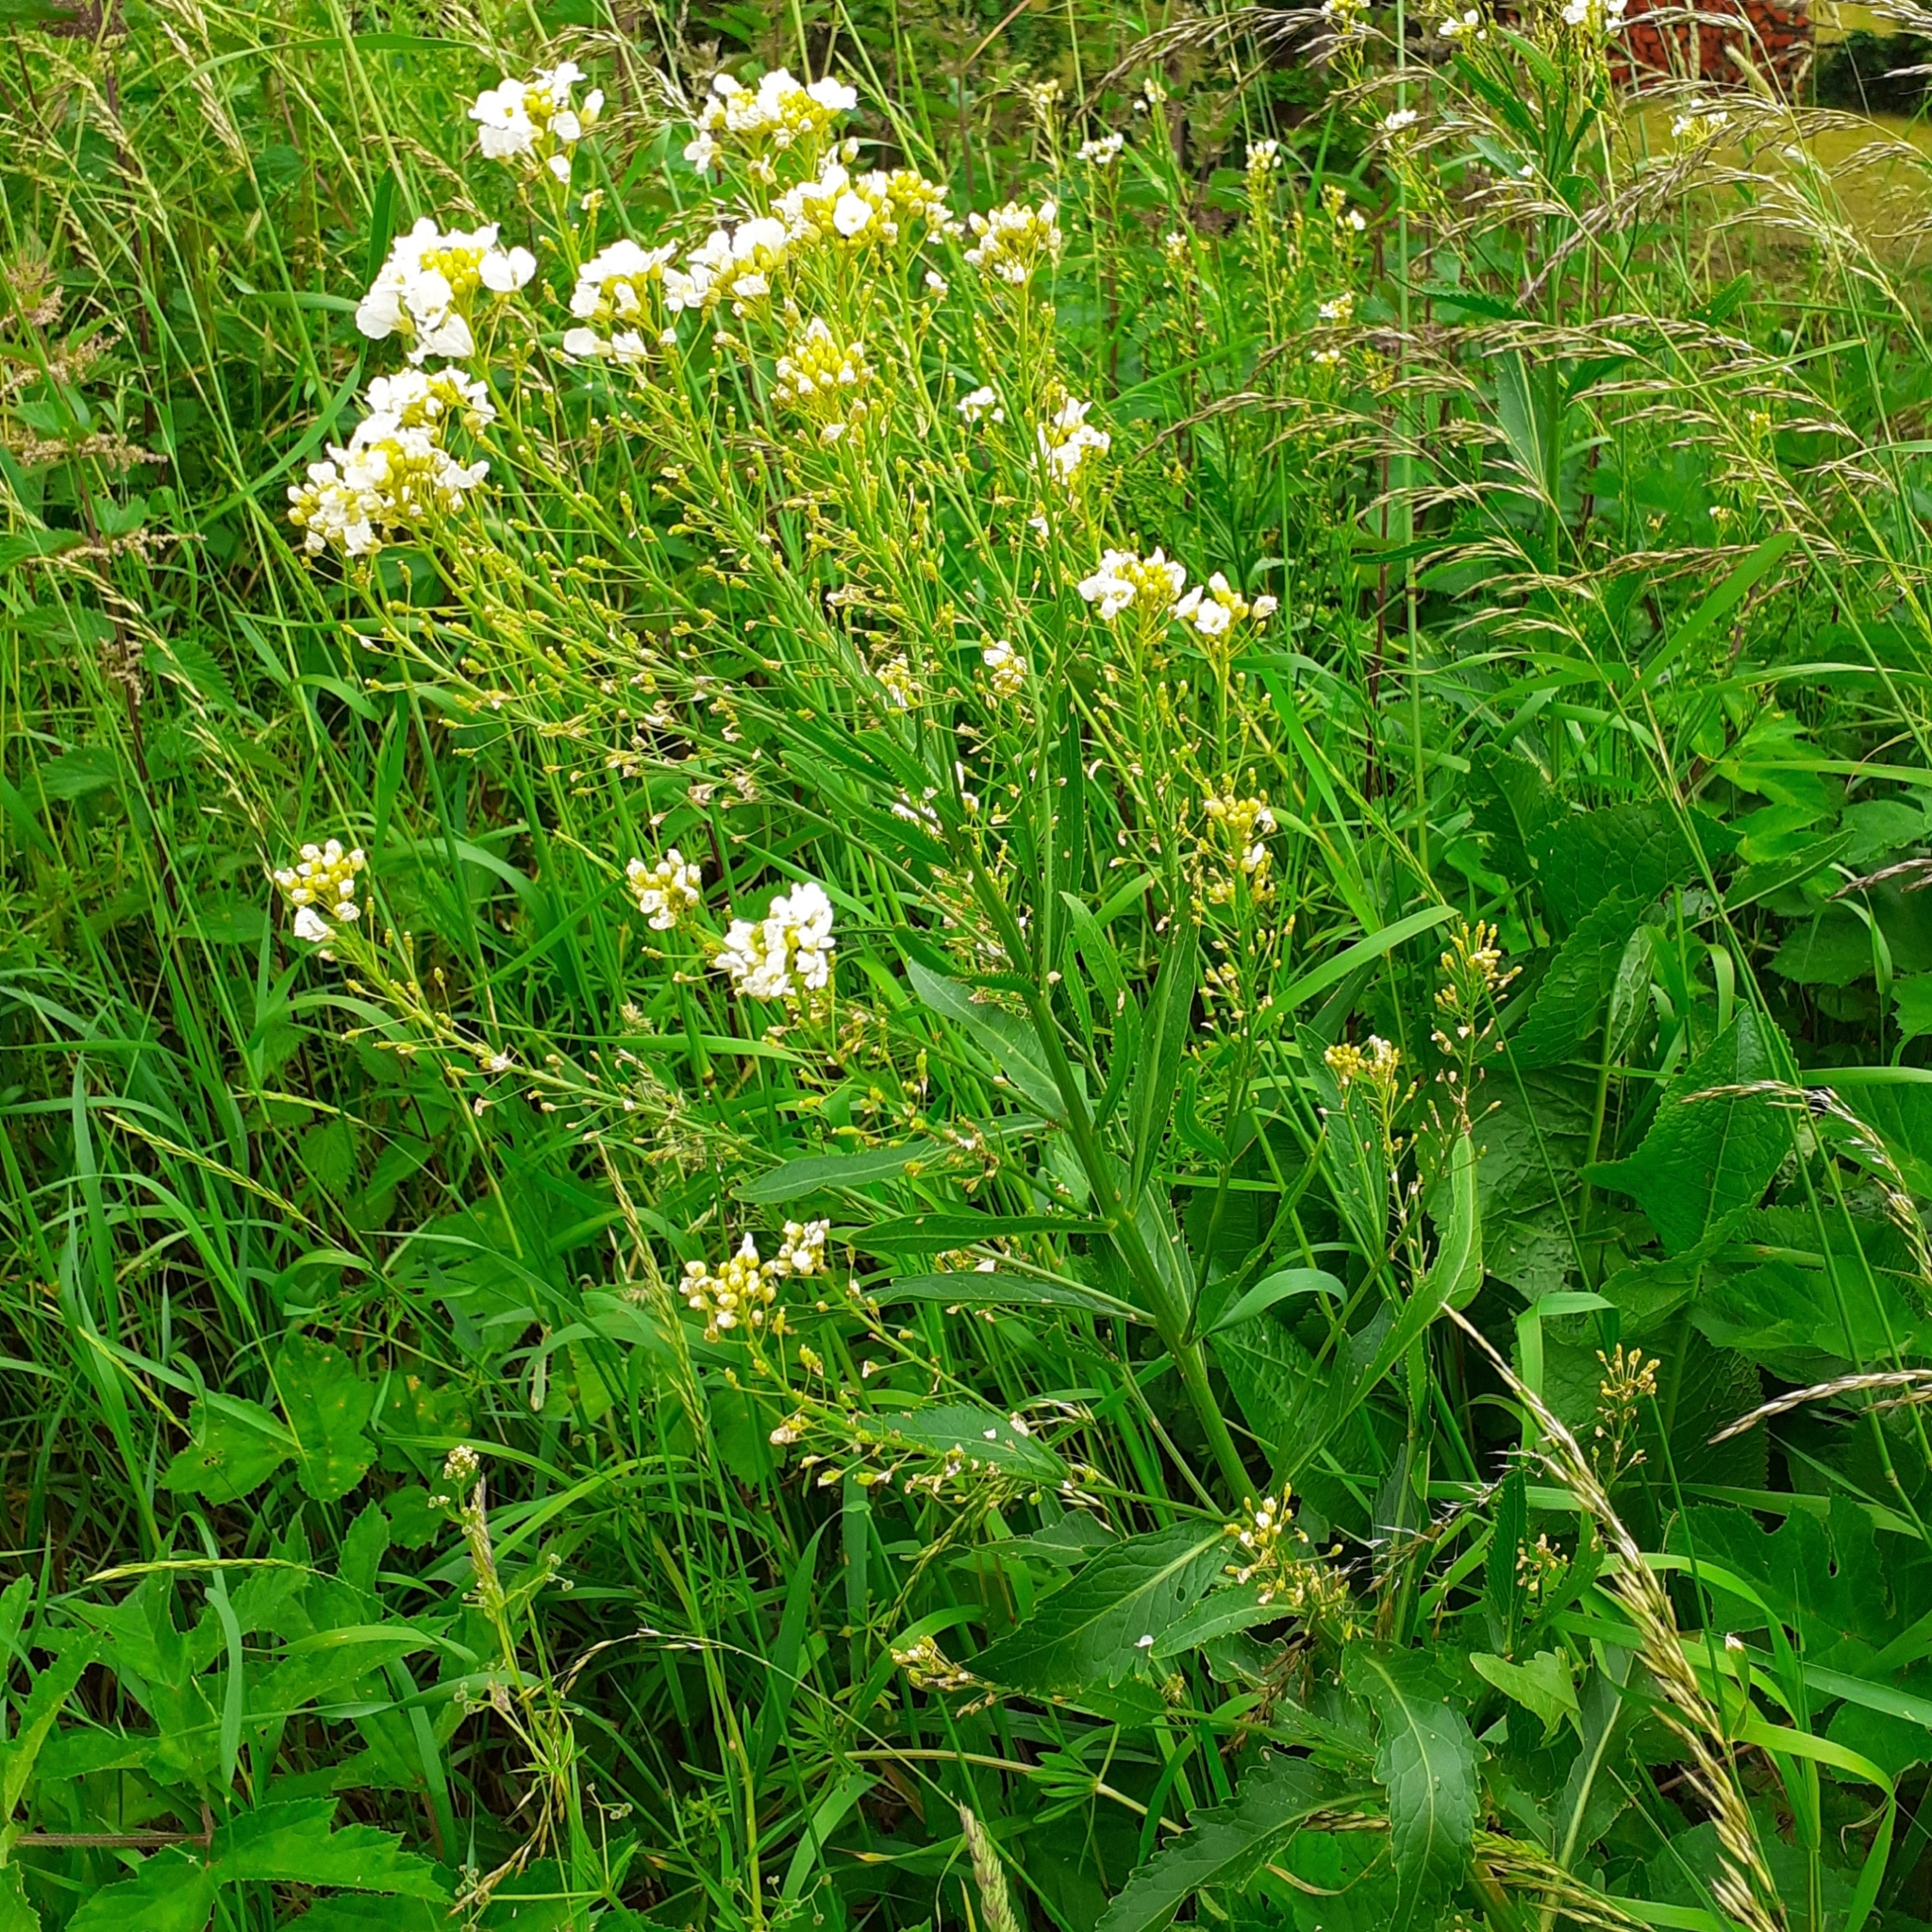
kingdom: Plantae
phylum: Tracheophyta
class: Magnoliopsida
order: Brassicales
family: Brassicaceae
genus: Armoracia
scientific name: Armoracia rusticana
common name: Horseradish
